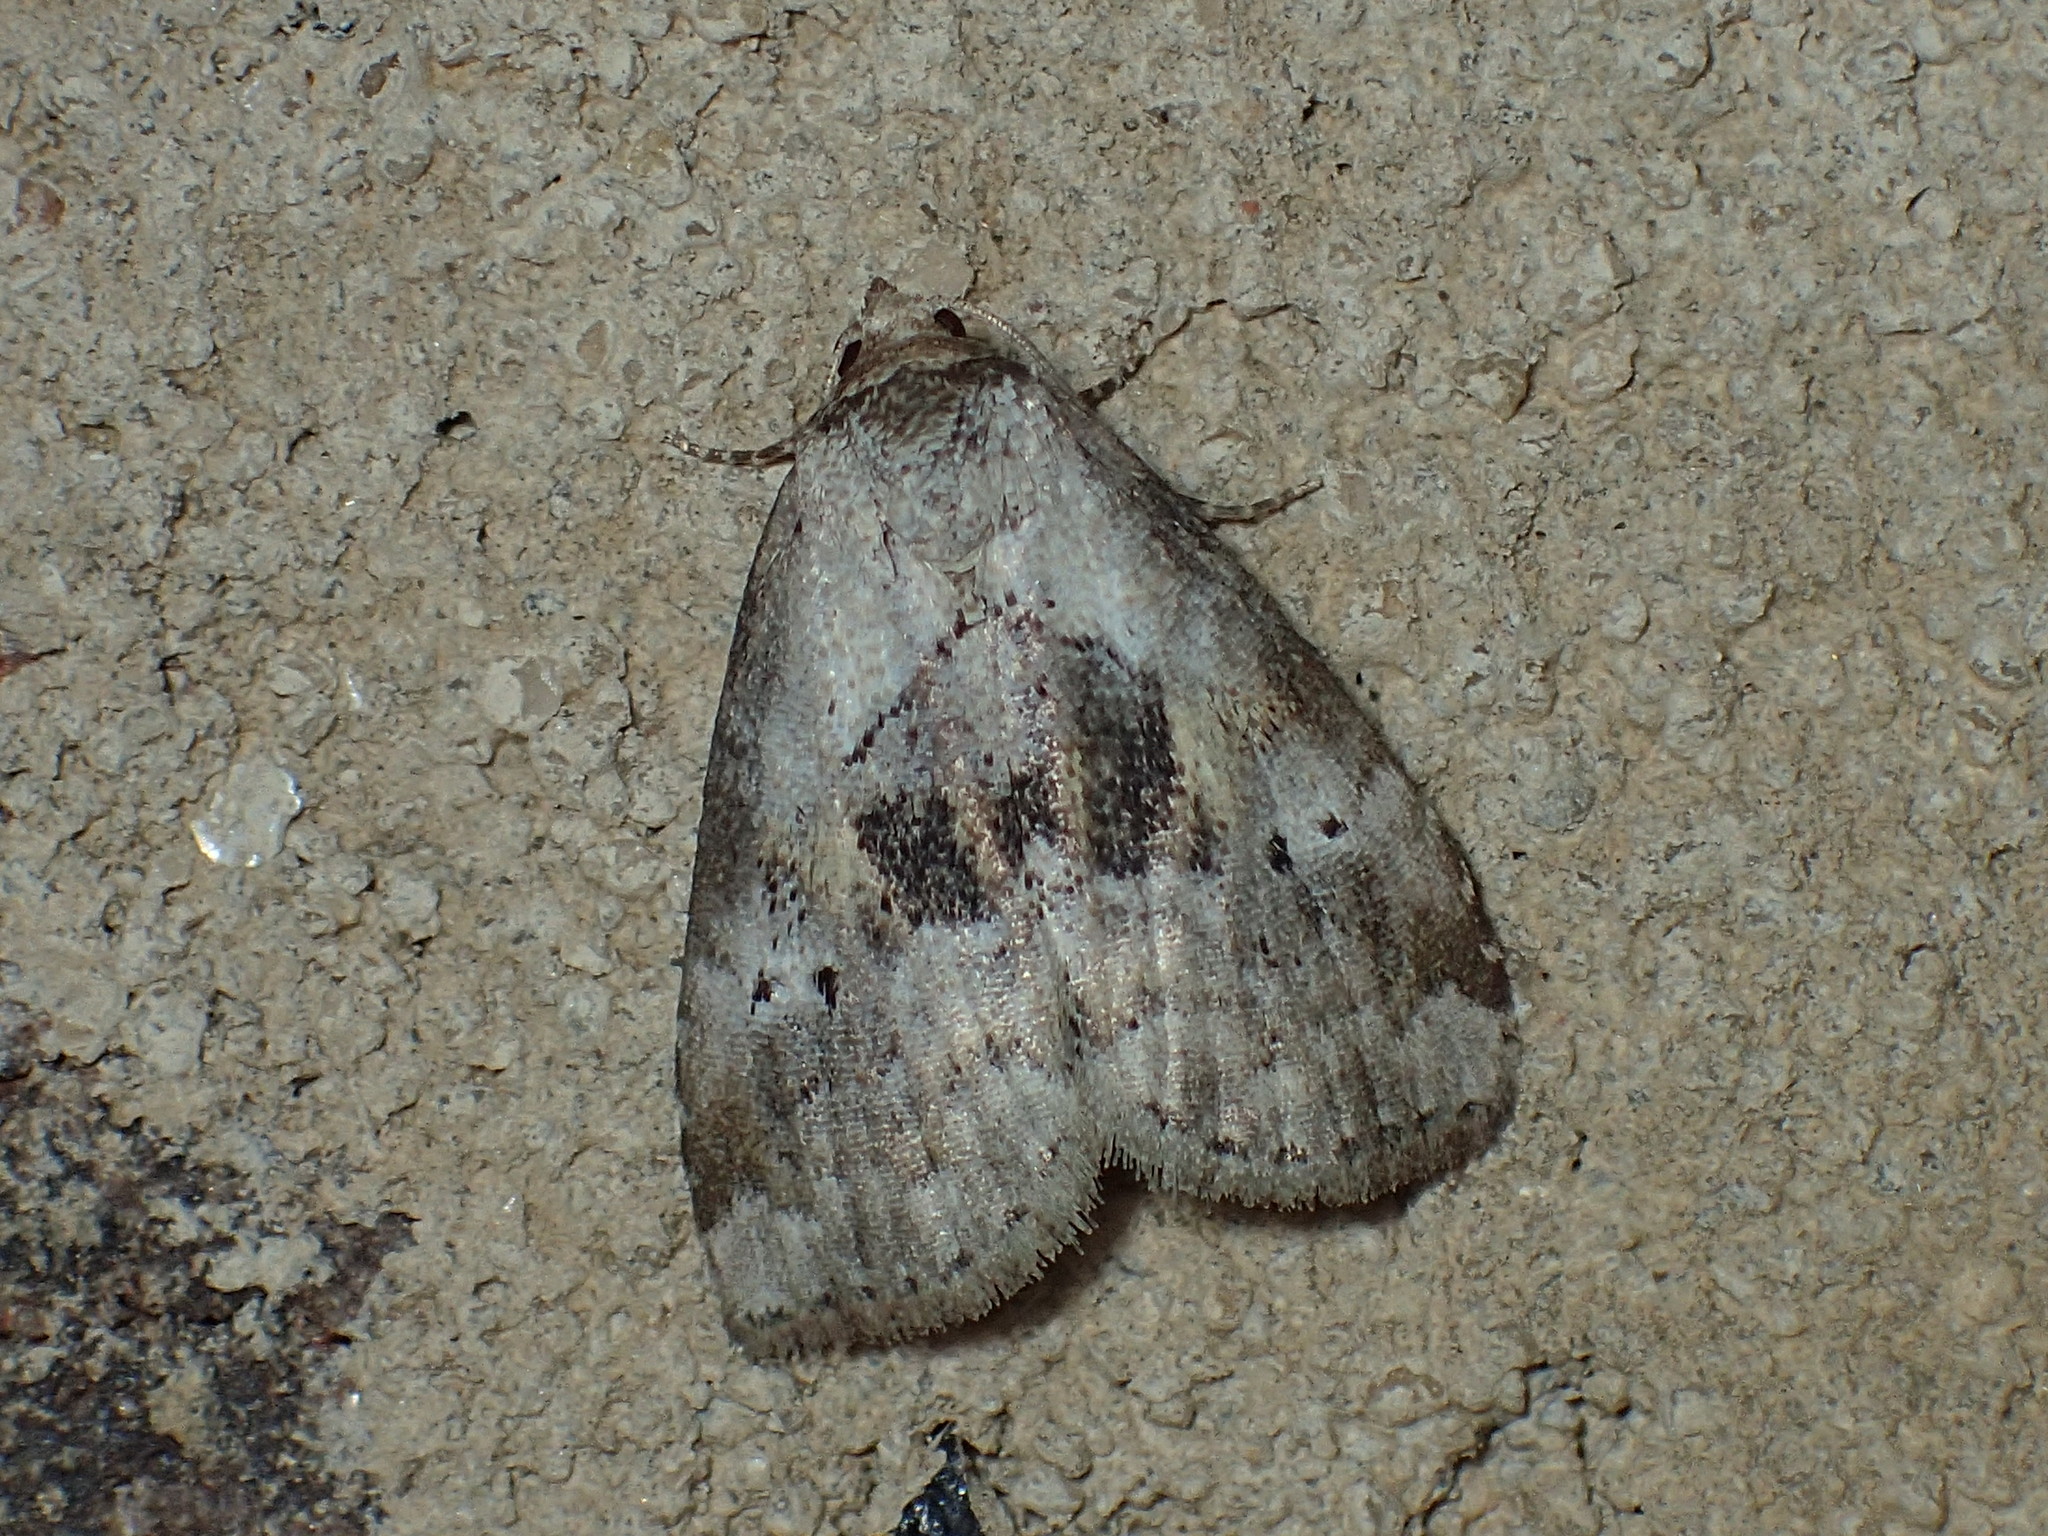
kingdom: Animalia
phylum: Arthropoda
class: Insecta
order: Lepidoptera
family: Erebidae
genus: Hyperstrotia
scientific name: Hyperstrotia secta
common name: Black-patched graylet
